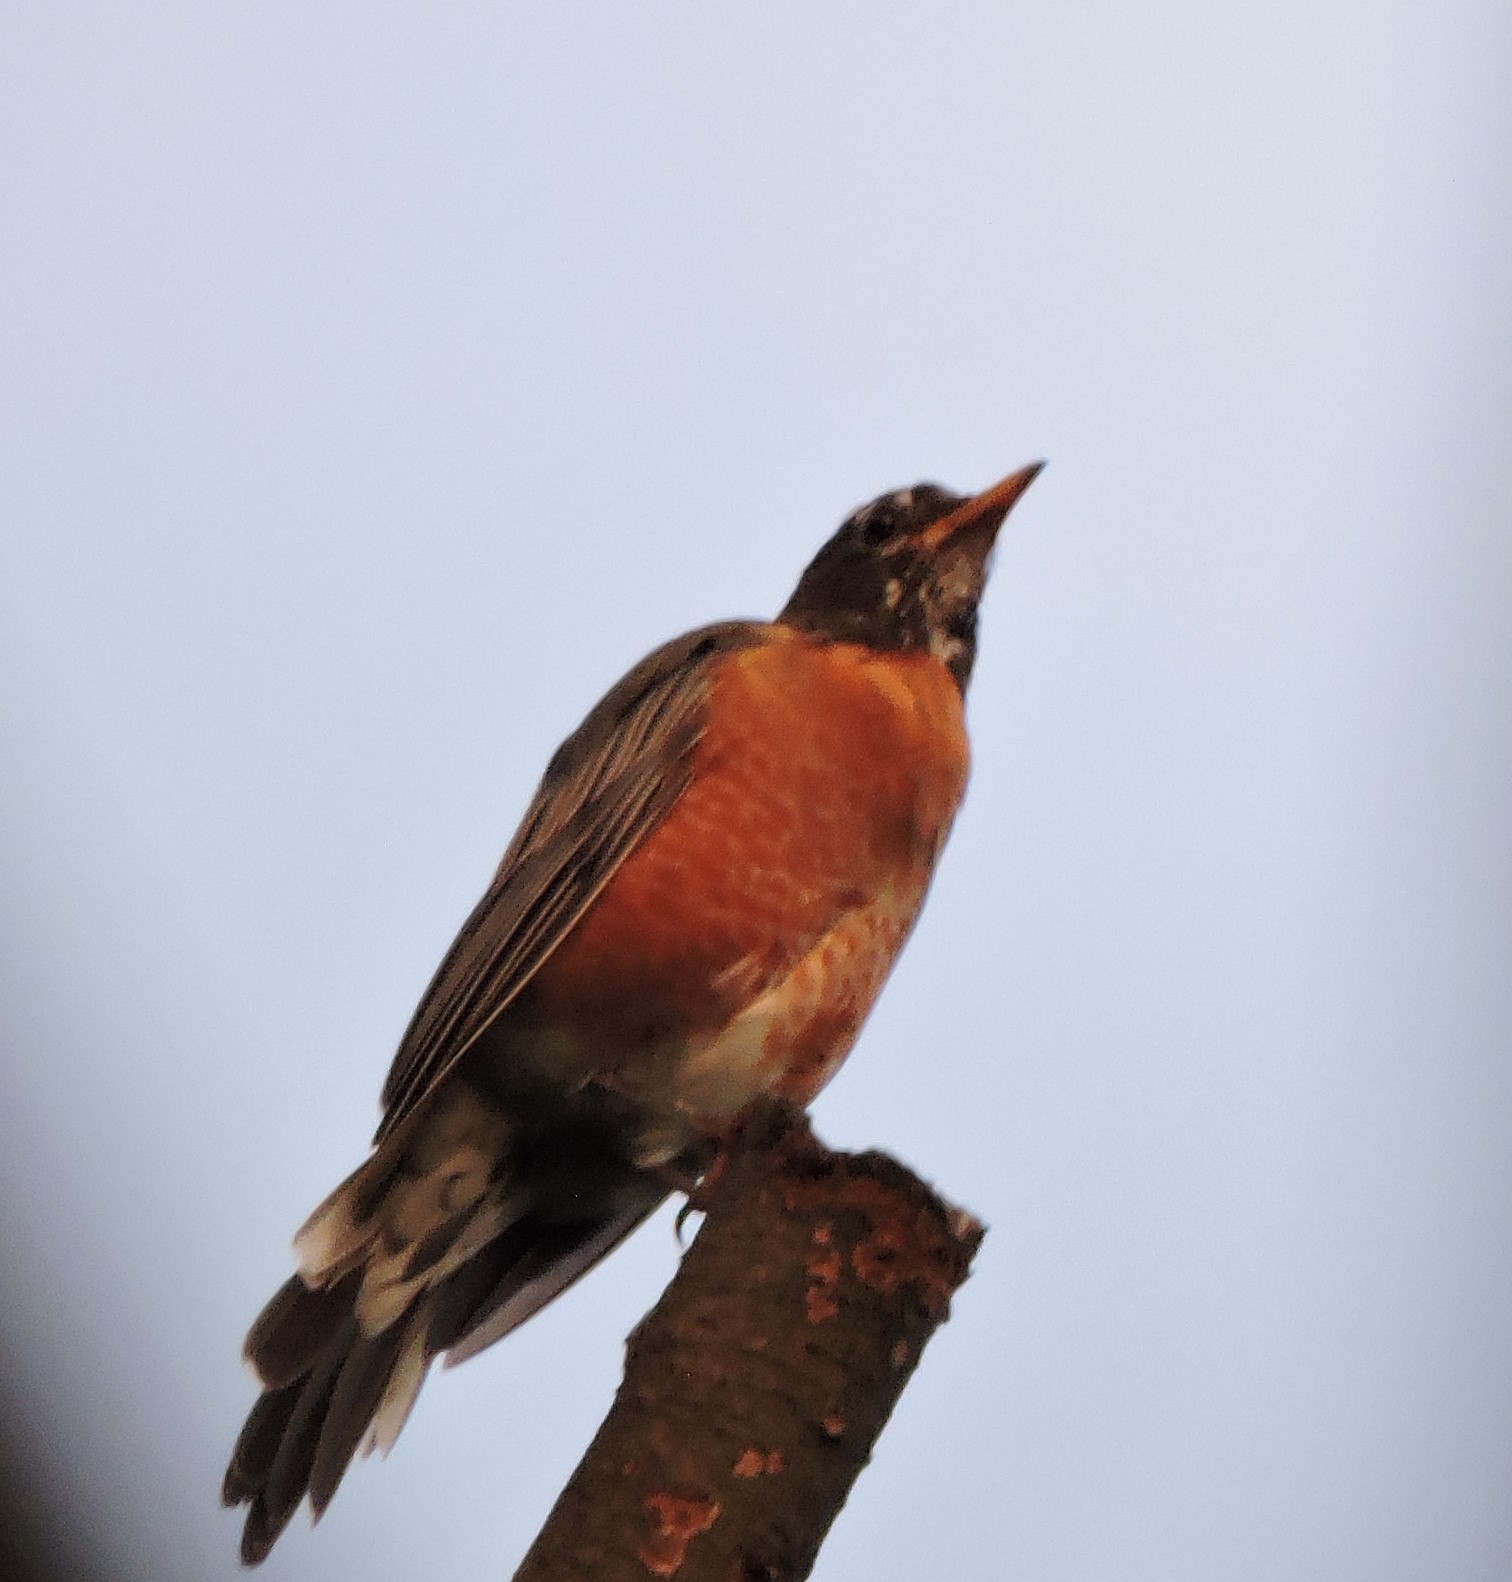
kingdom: Animalia
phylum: Chordata
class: Aves
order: Passeriformes
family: Turdidae
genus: Turdus
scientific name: Turdus migratorius
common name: American robin
